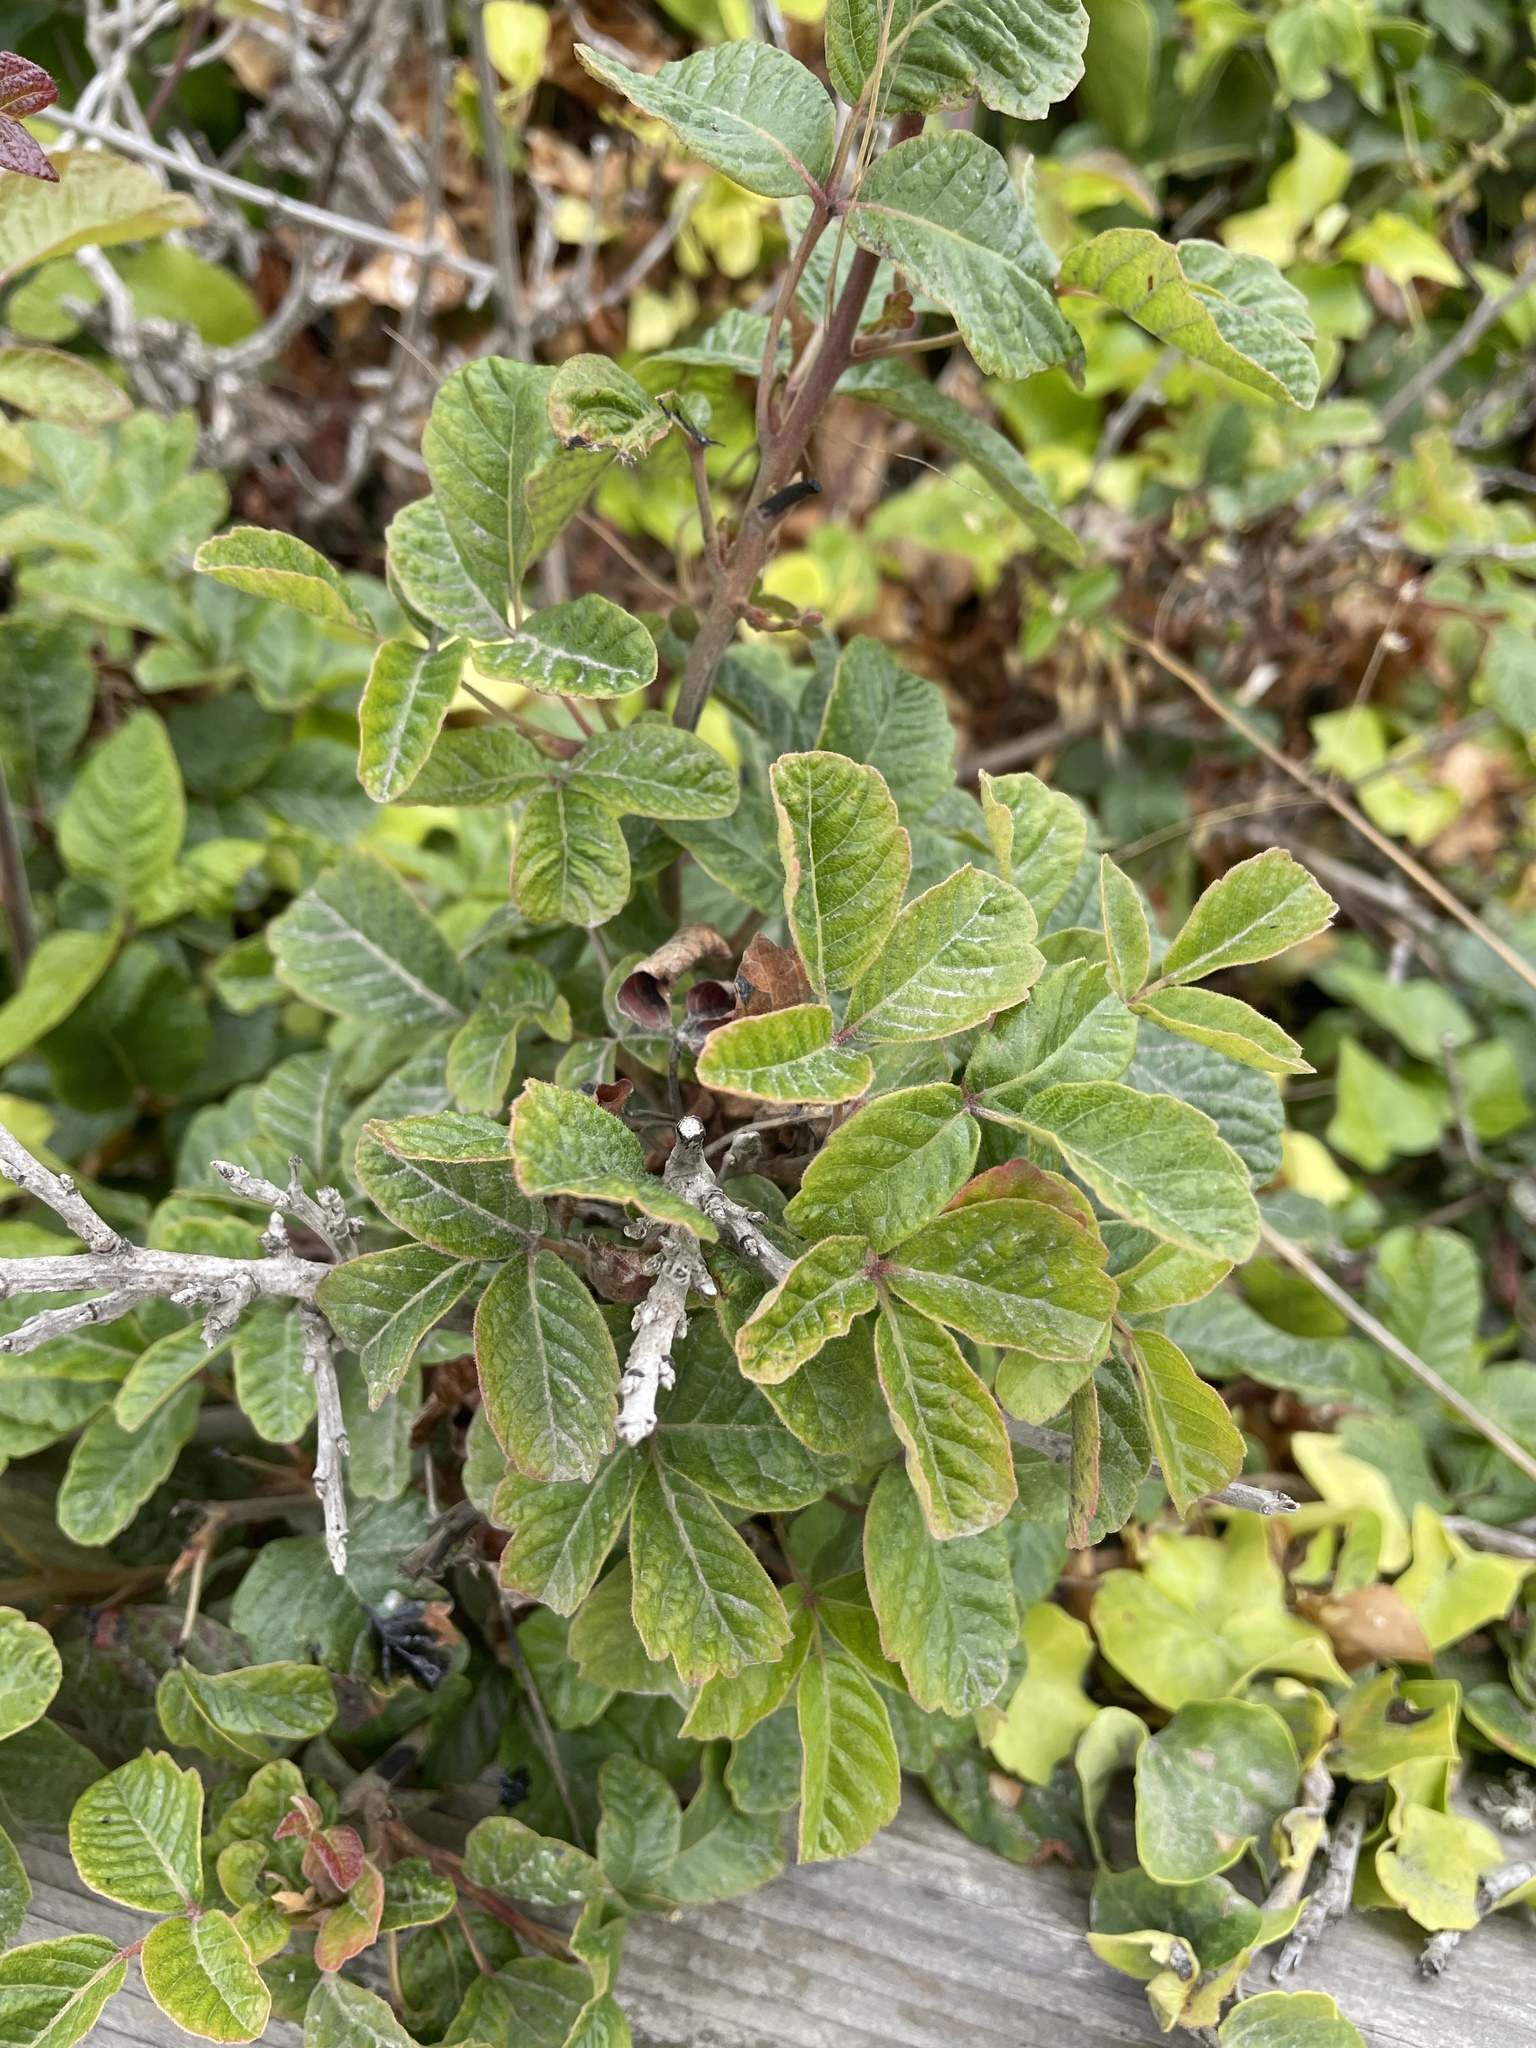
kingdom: Plantae
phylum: Tracheophyta
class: Magnoliopsida
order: Sapindales
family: Anacardiaceae
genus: Toxicodendron
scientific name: Toxicodendron diversilobum
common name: Pacific poison-oak
